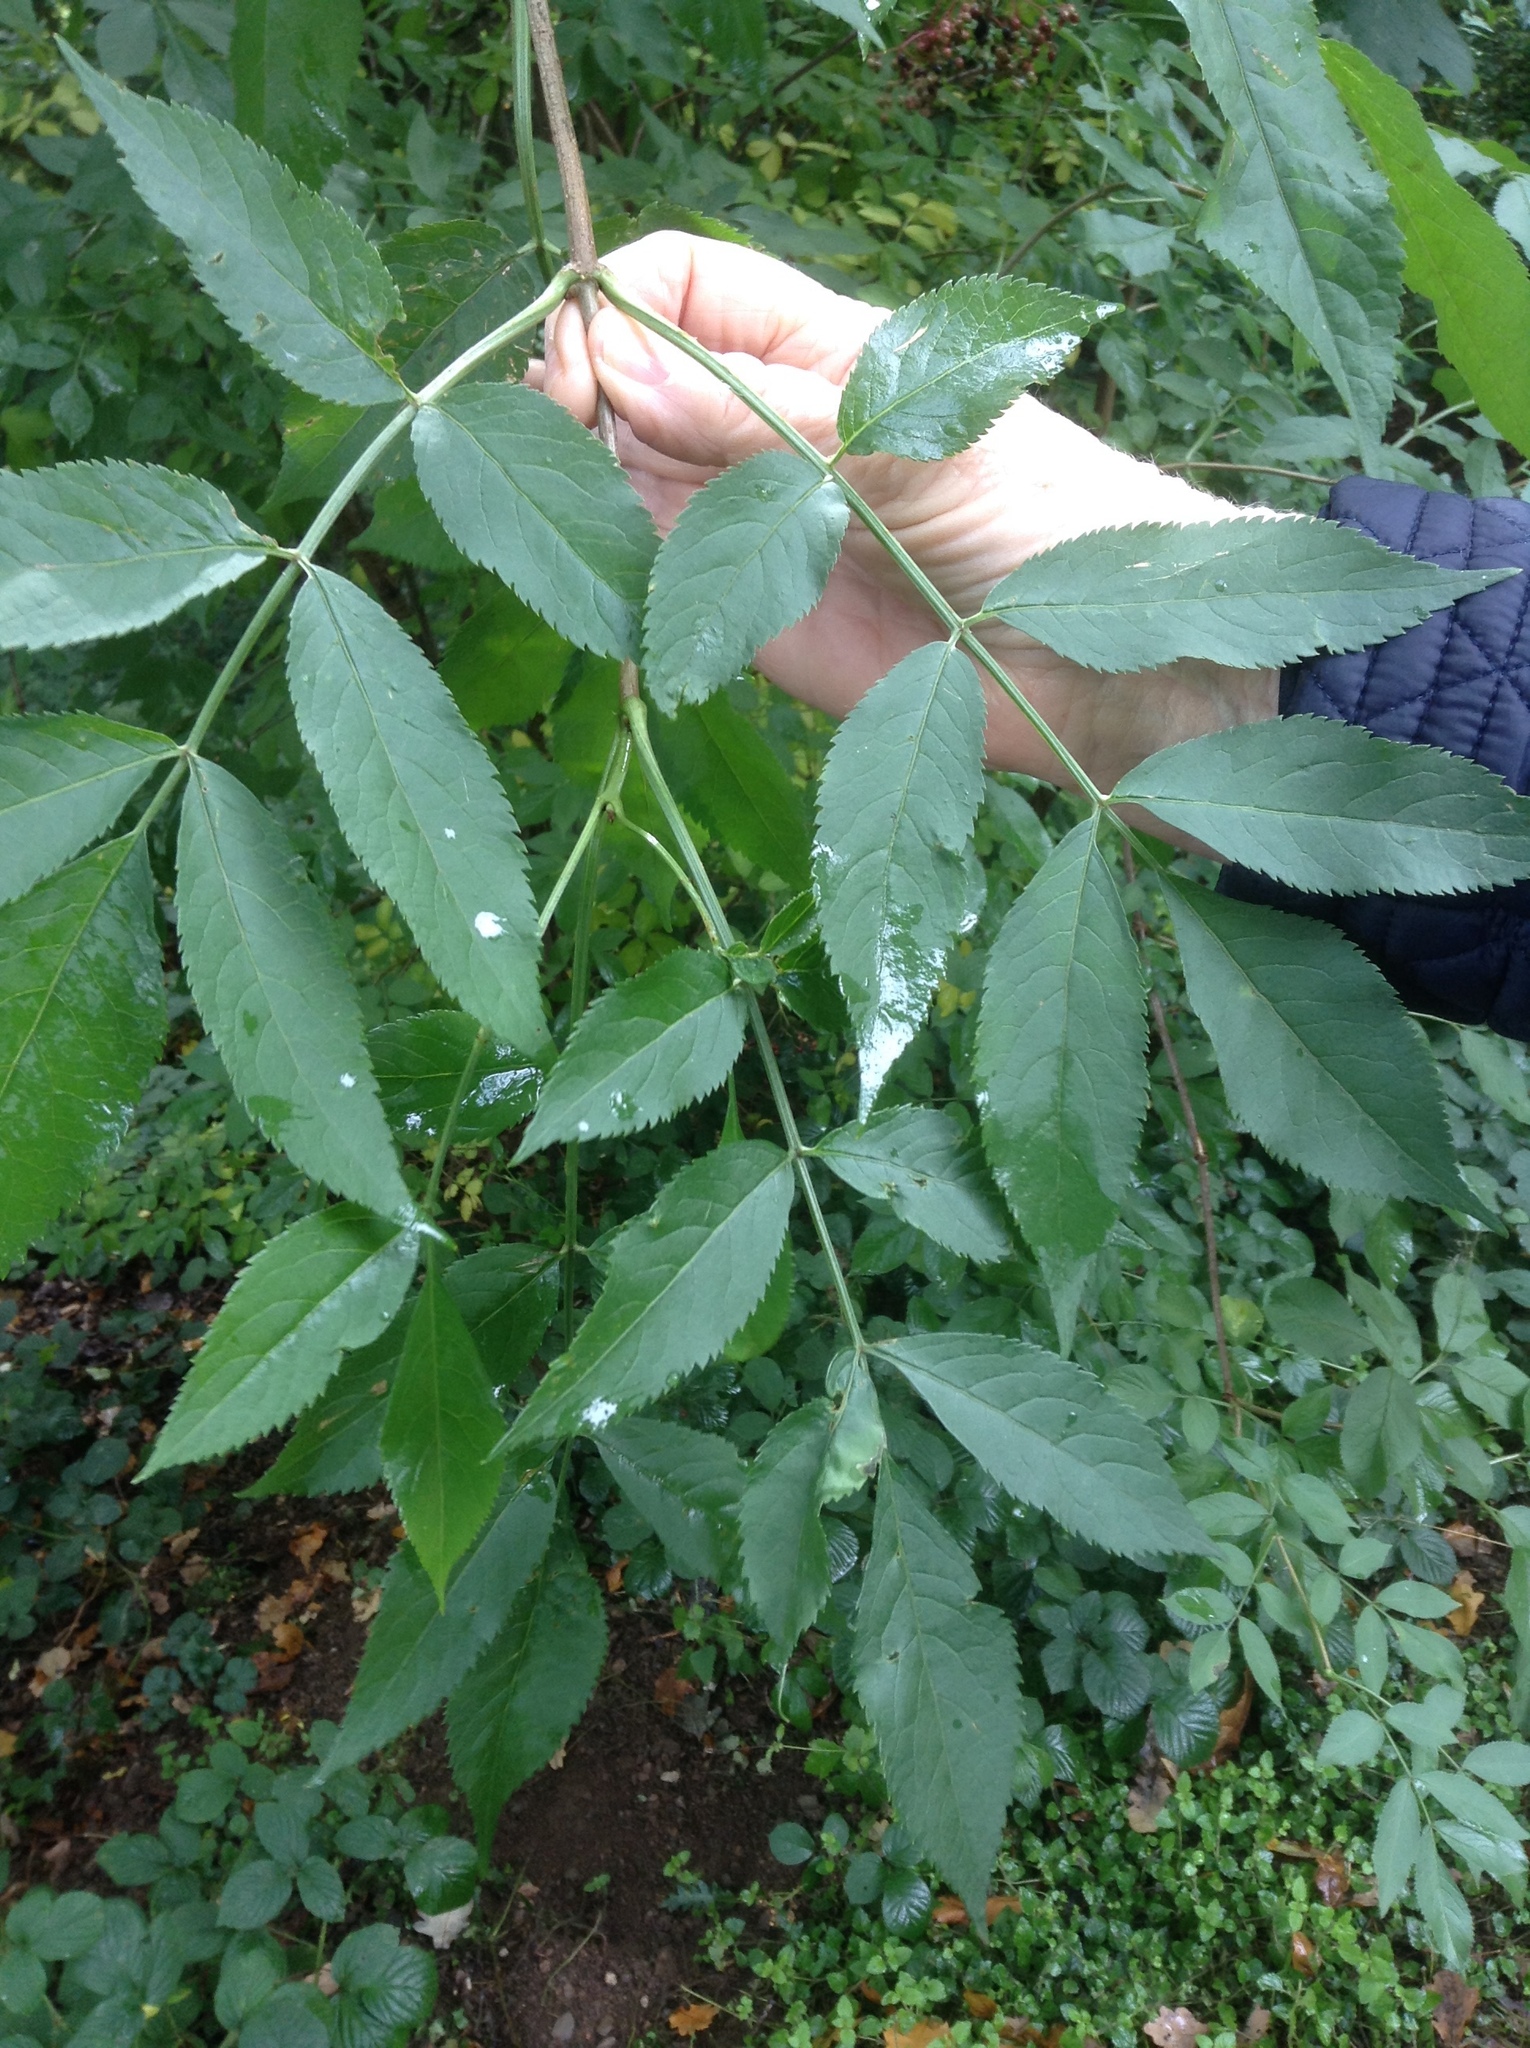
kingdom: Plantae
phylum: Tracheophyta
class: Magnoliopsida
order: Dipsacales
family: Viburnaceae
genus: Sambucus
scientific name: Sambucus nigra
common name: Elder
